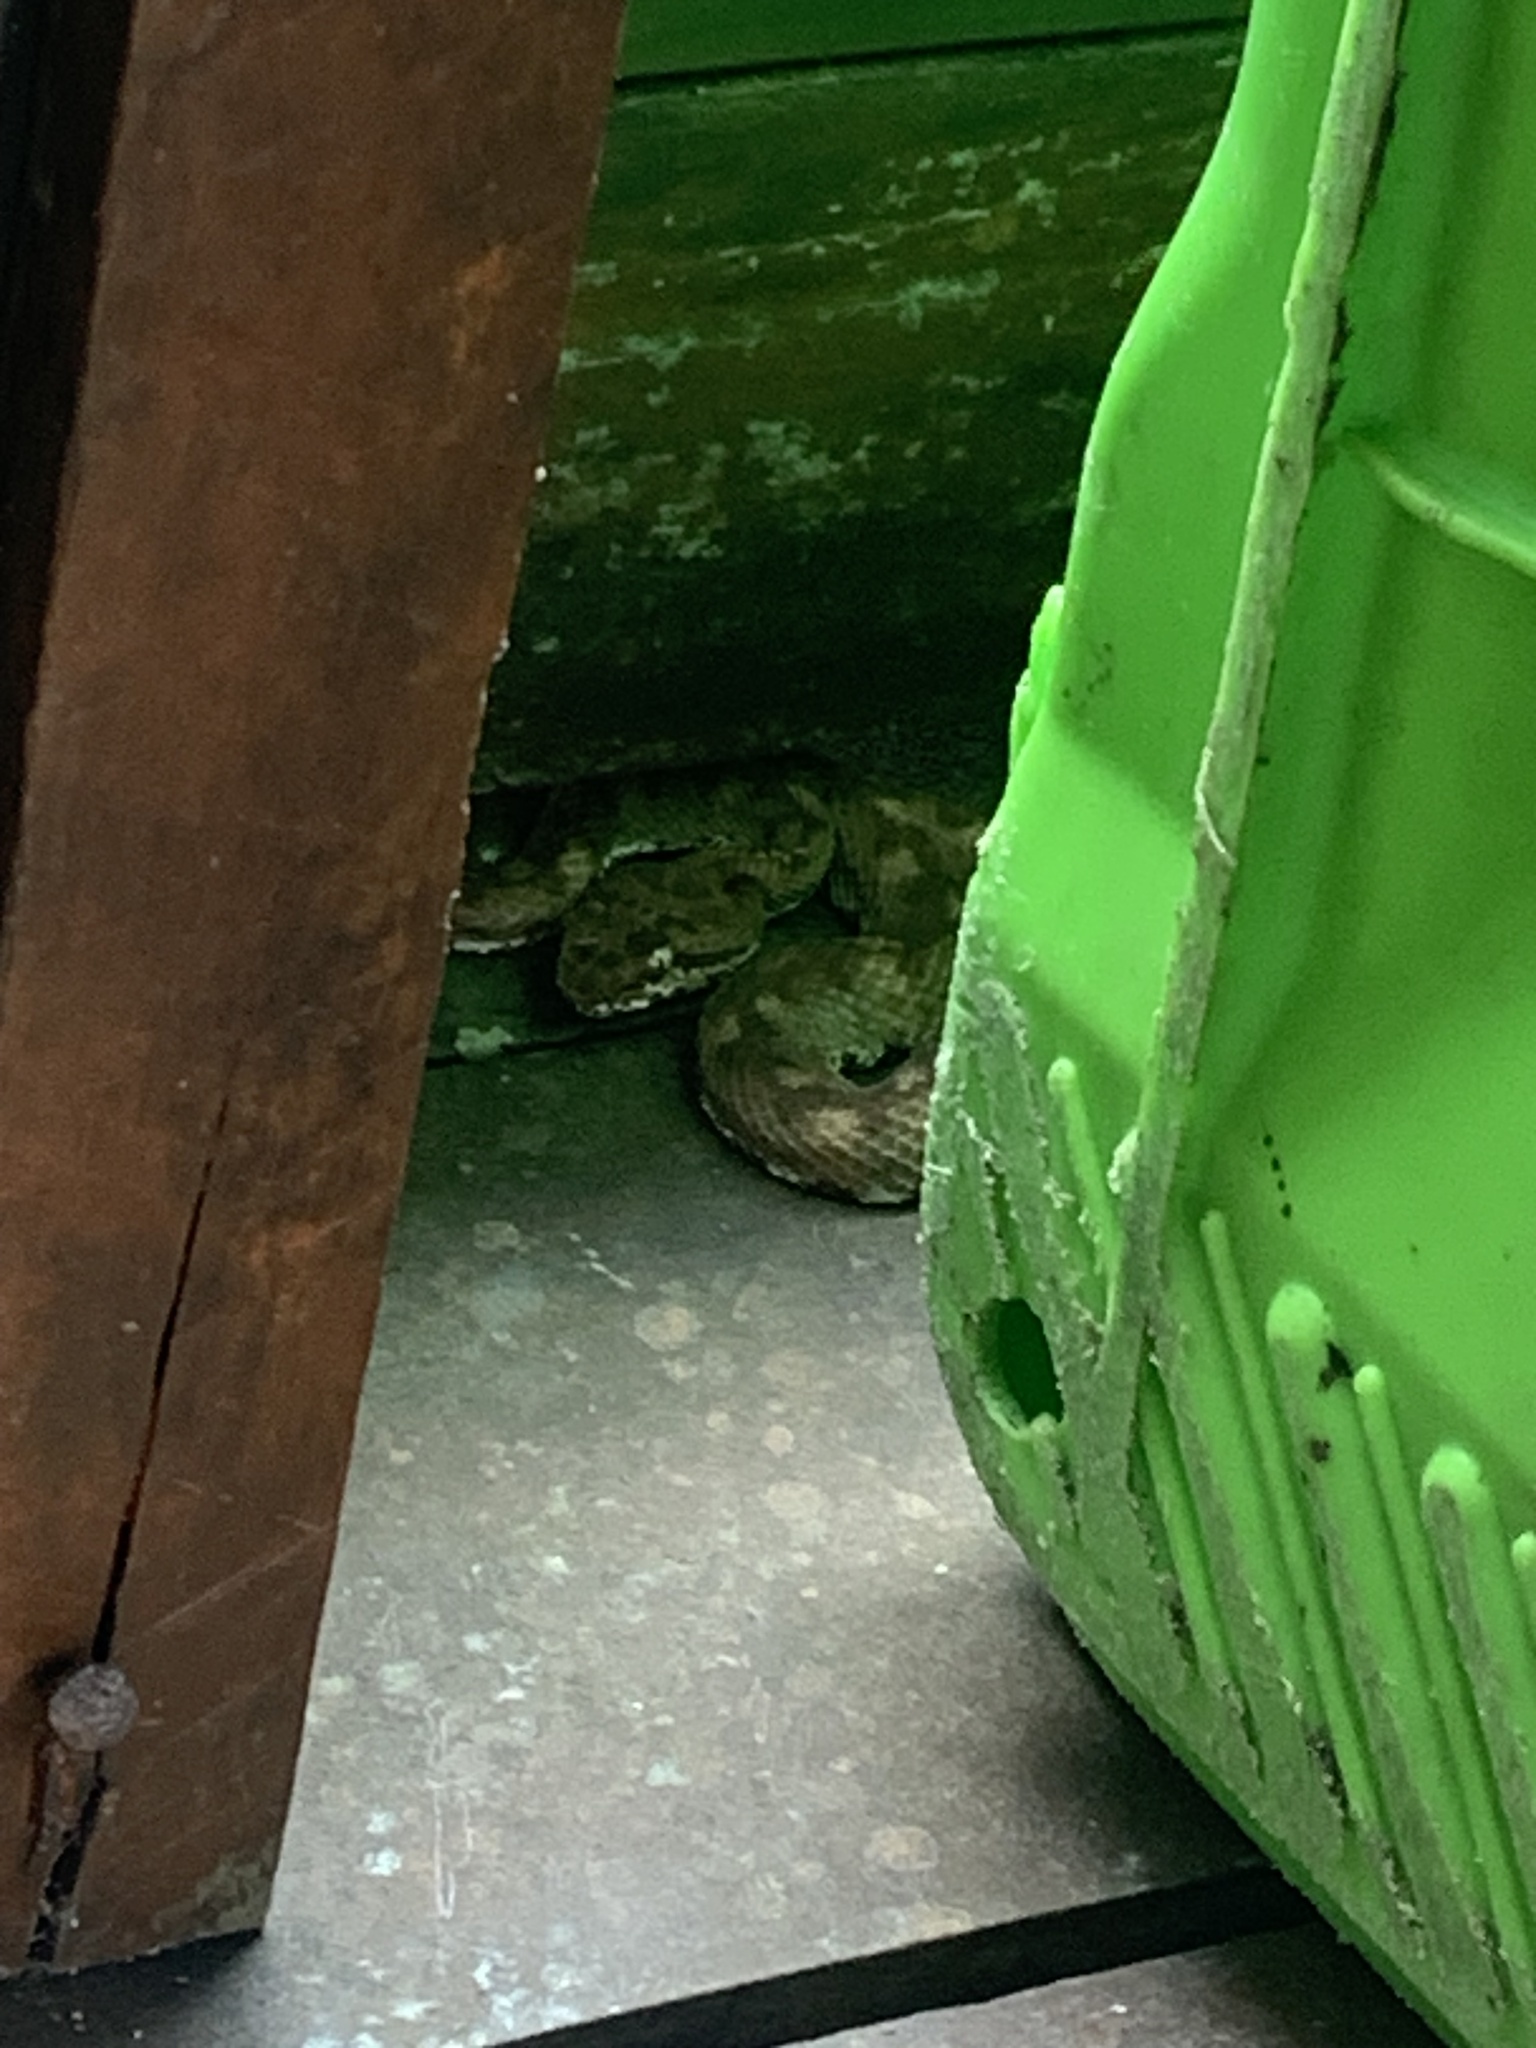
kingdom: Animalia
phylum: Chordata
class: Squamata
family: Viperidae
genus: Bothriechis
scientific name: Bothriechis schlegelii
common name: Eyelash viper
